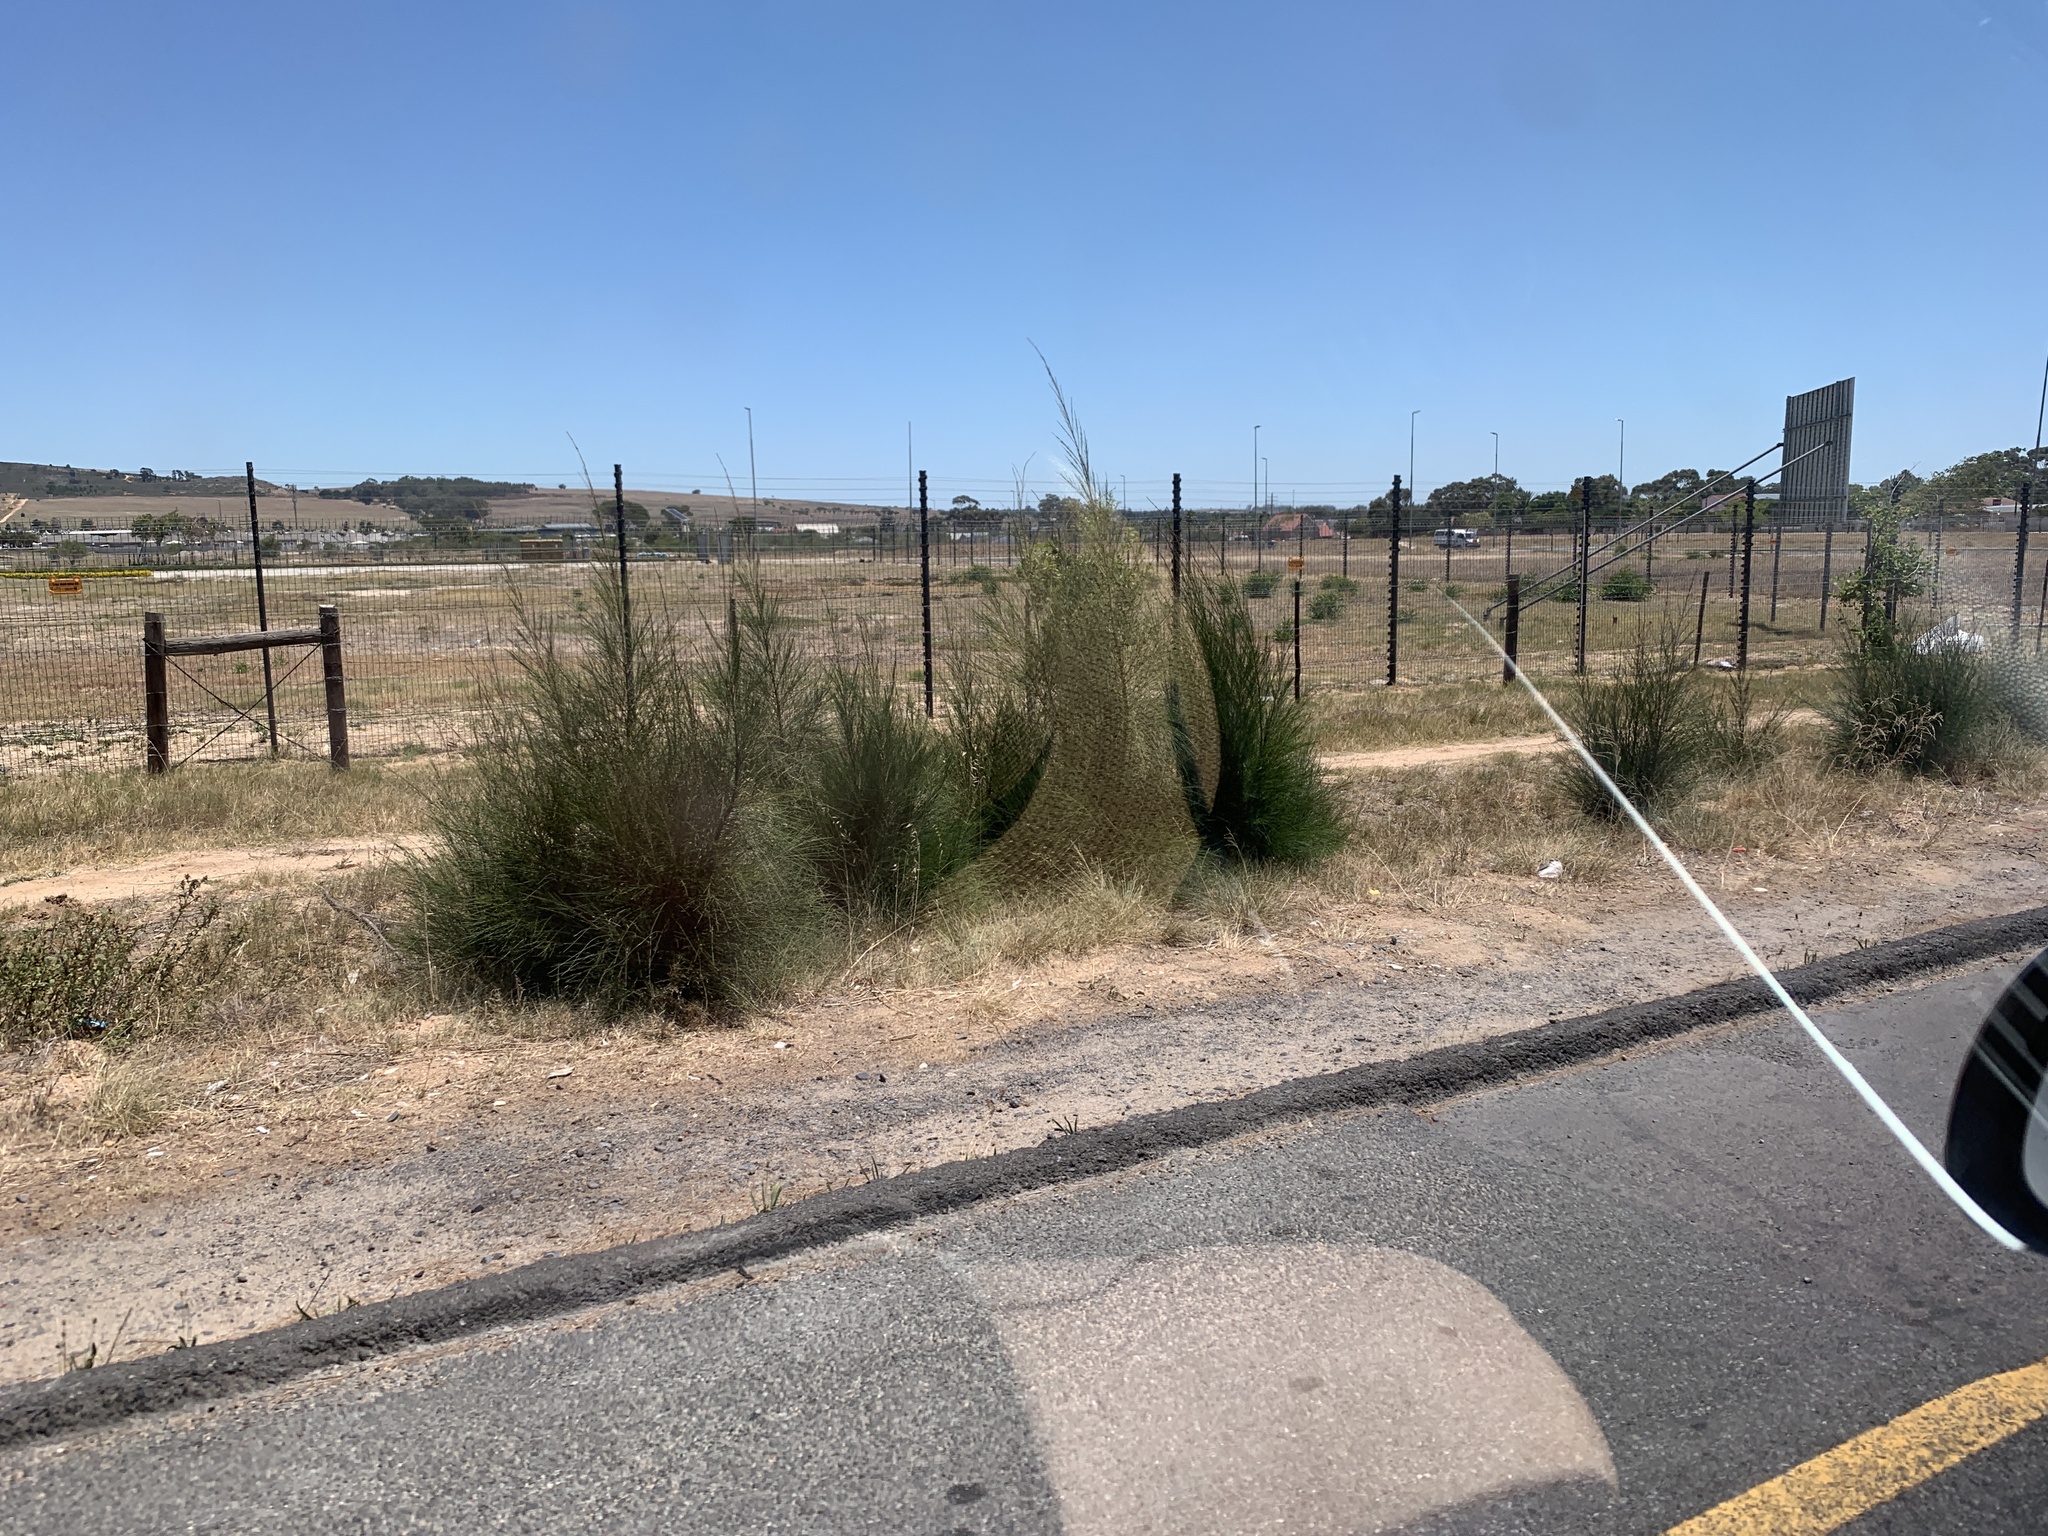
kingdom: Plantae
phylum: Tracheophyta
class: Magnoliopsida
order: Fagales
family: Casuarinaceae
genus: Casuarina
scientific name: Casuarina cunninghamiana
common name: River sheoak
